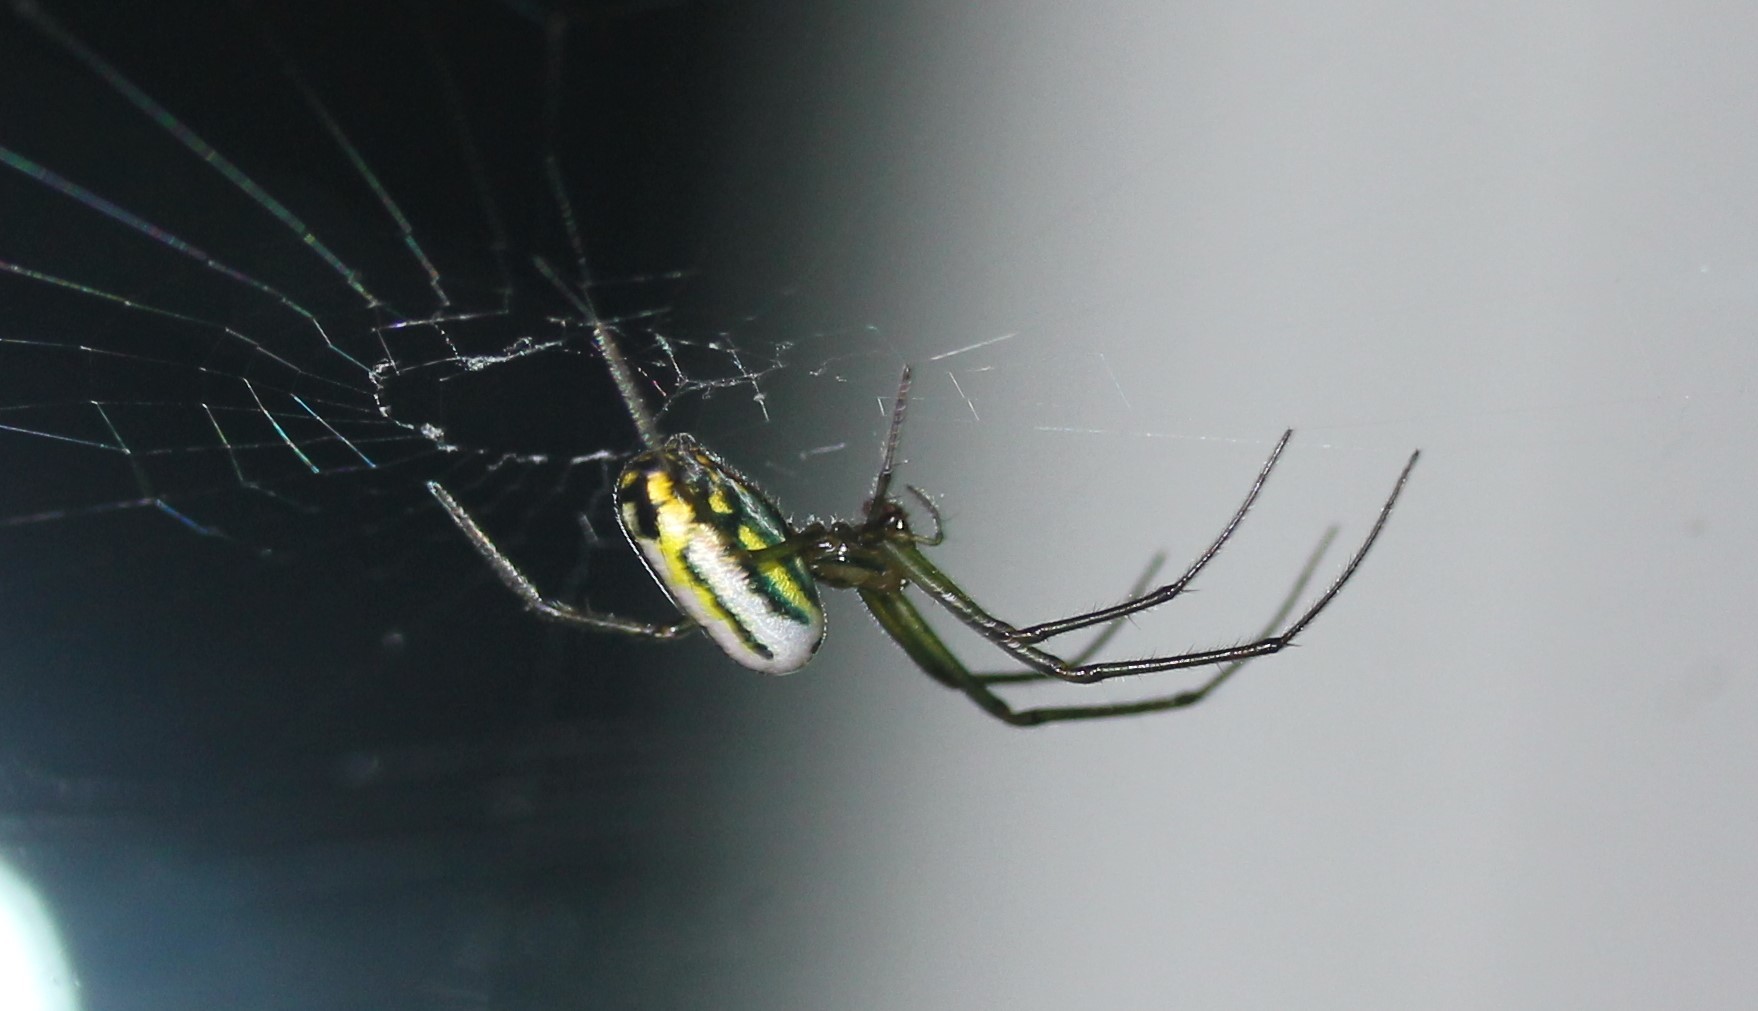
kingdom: Animalia
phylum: Arthropoda
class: Arachnida
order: Araneae
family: Tetragnathidae
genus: Leucauge
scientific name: Leucauge venusta
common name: Longjawed orb weavers
